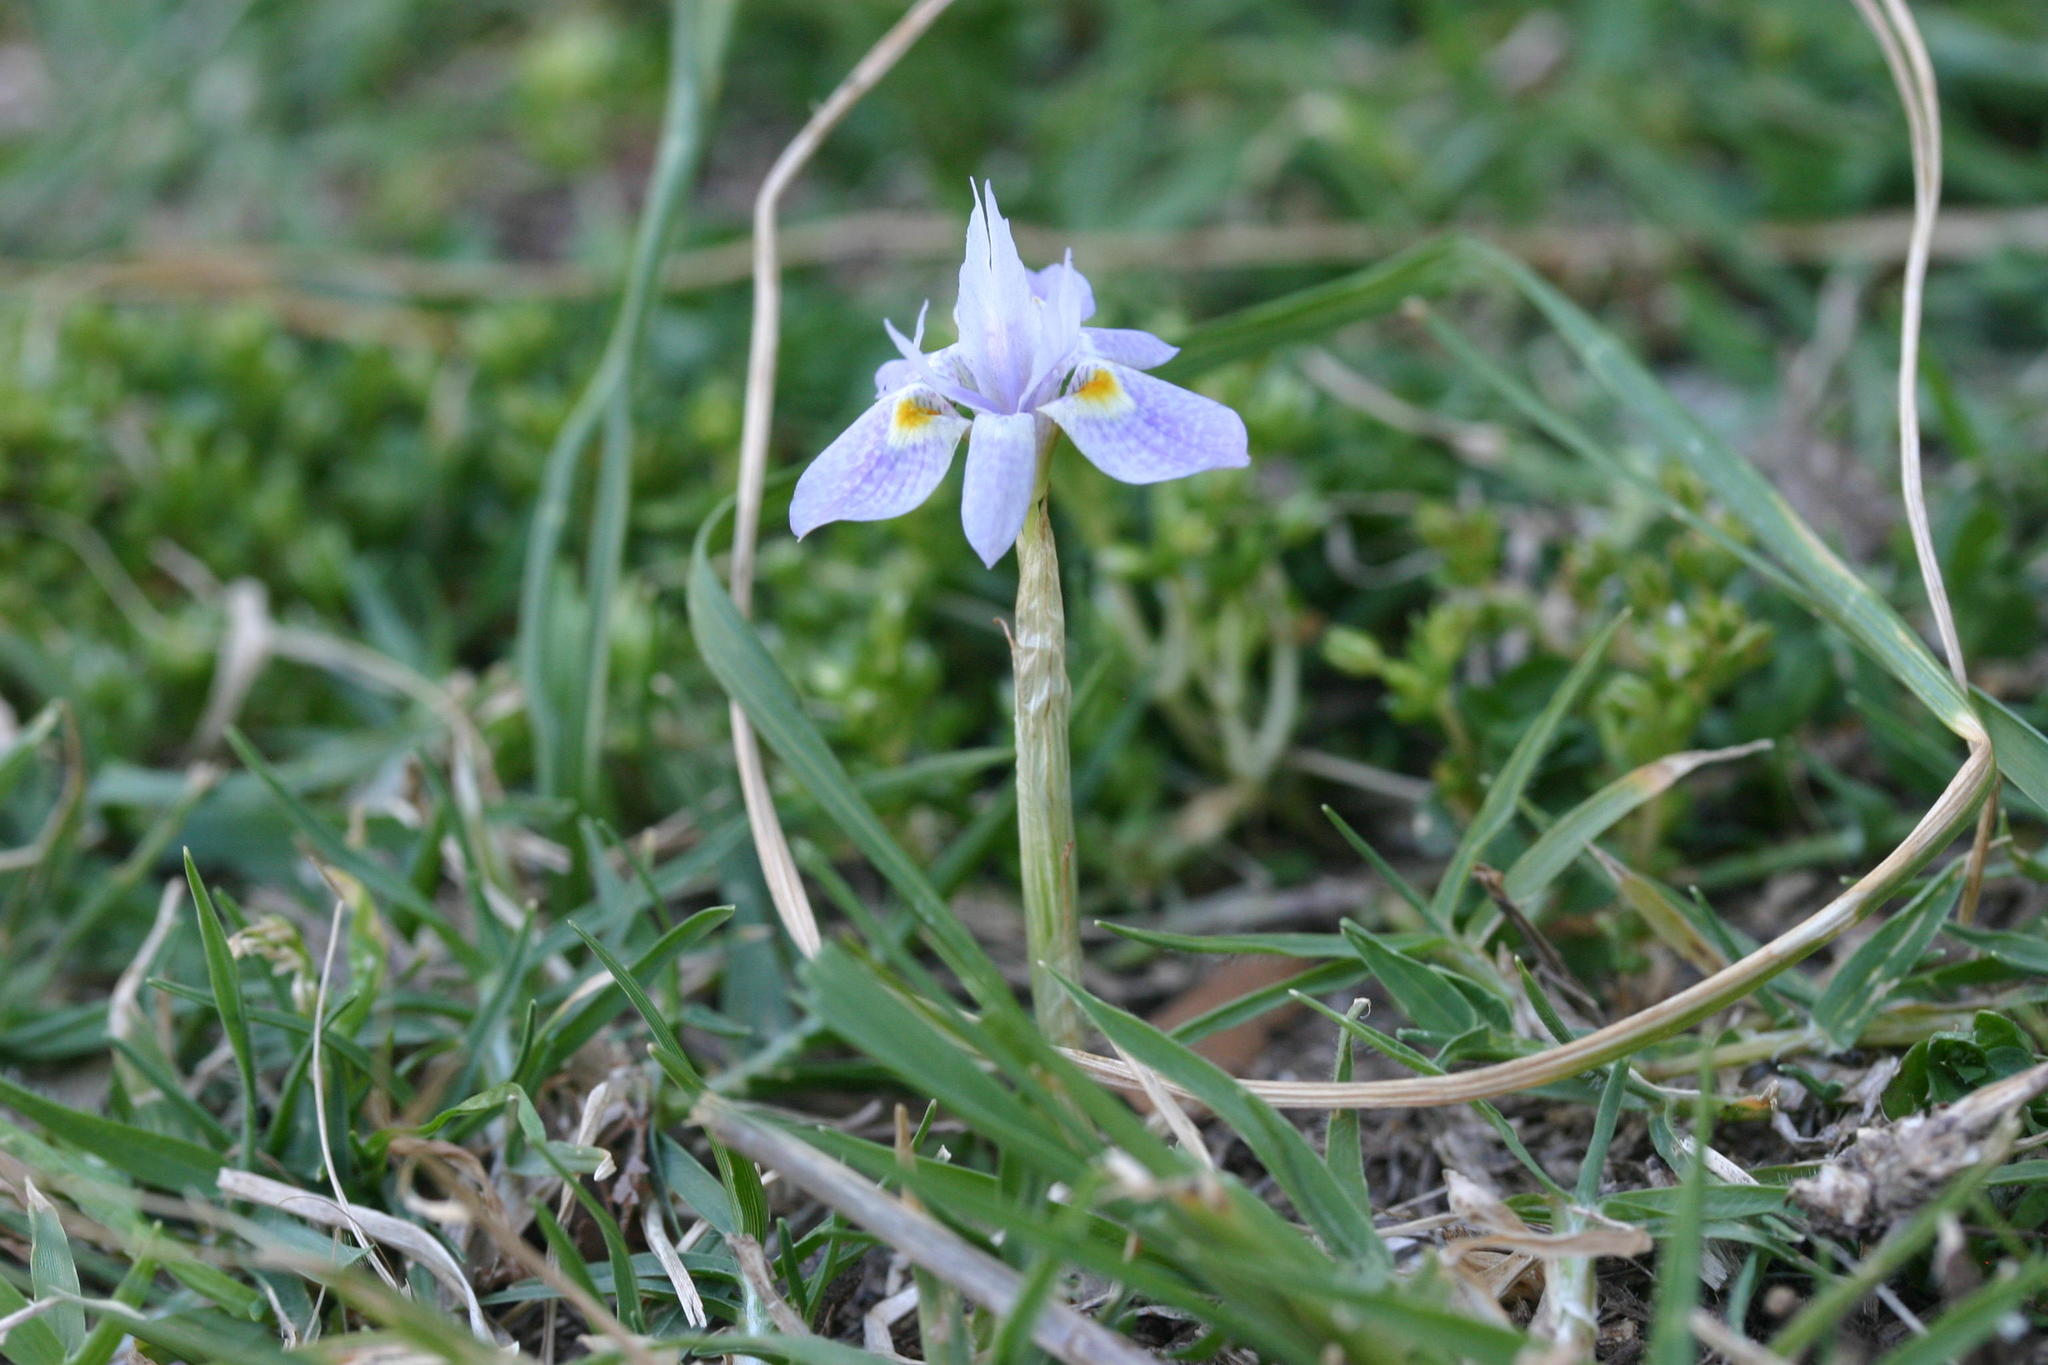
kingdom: Plantae
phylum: Tracheophyta
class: Liliopsida
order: Asparagales
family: Iridaceae
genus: Moraea
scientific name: Moraea setifolia
